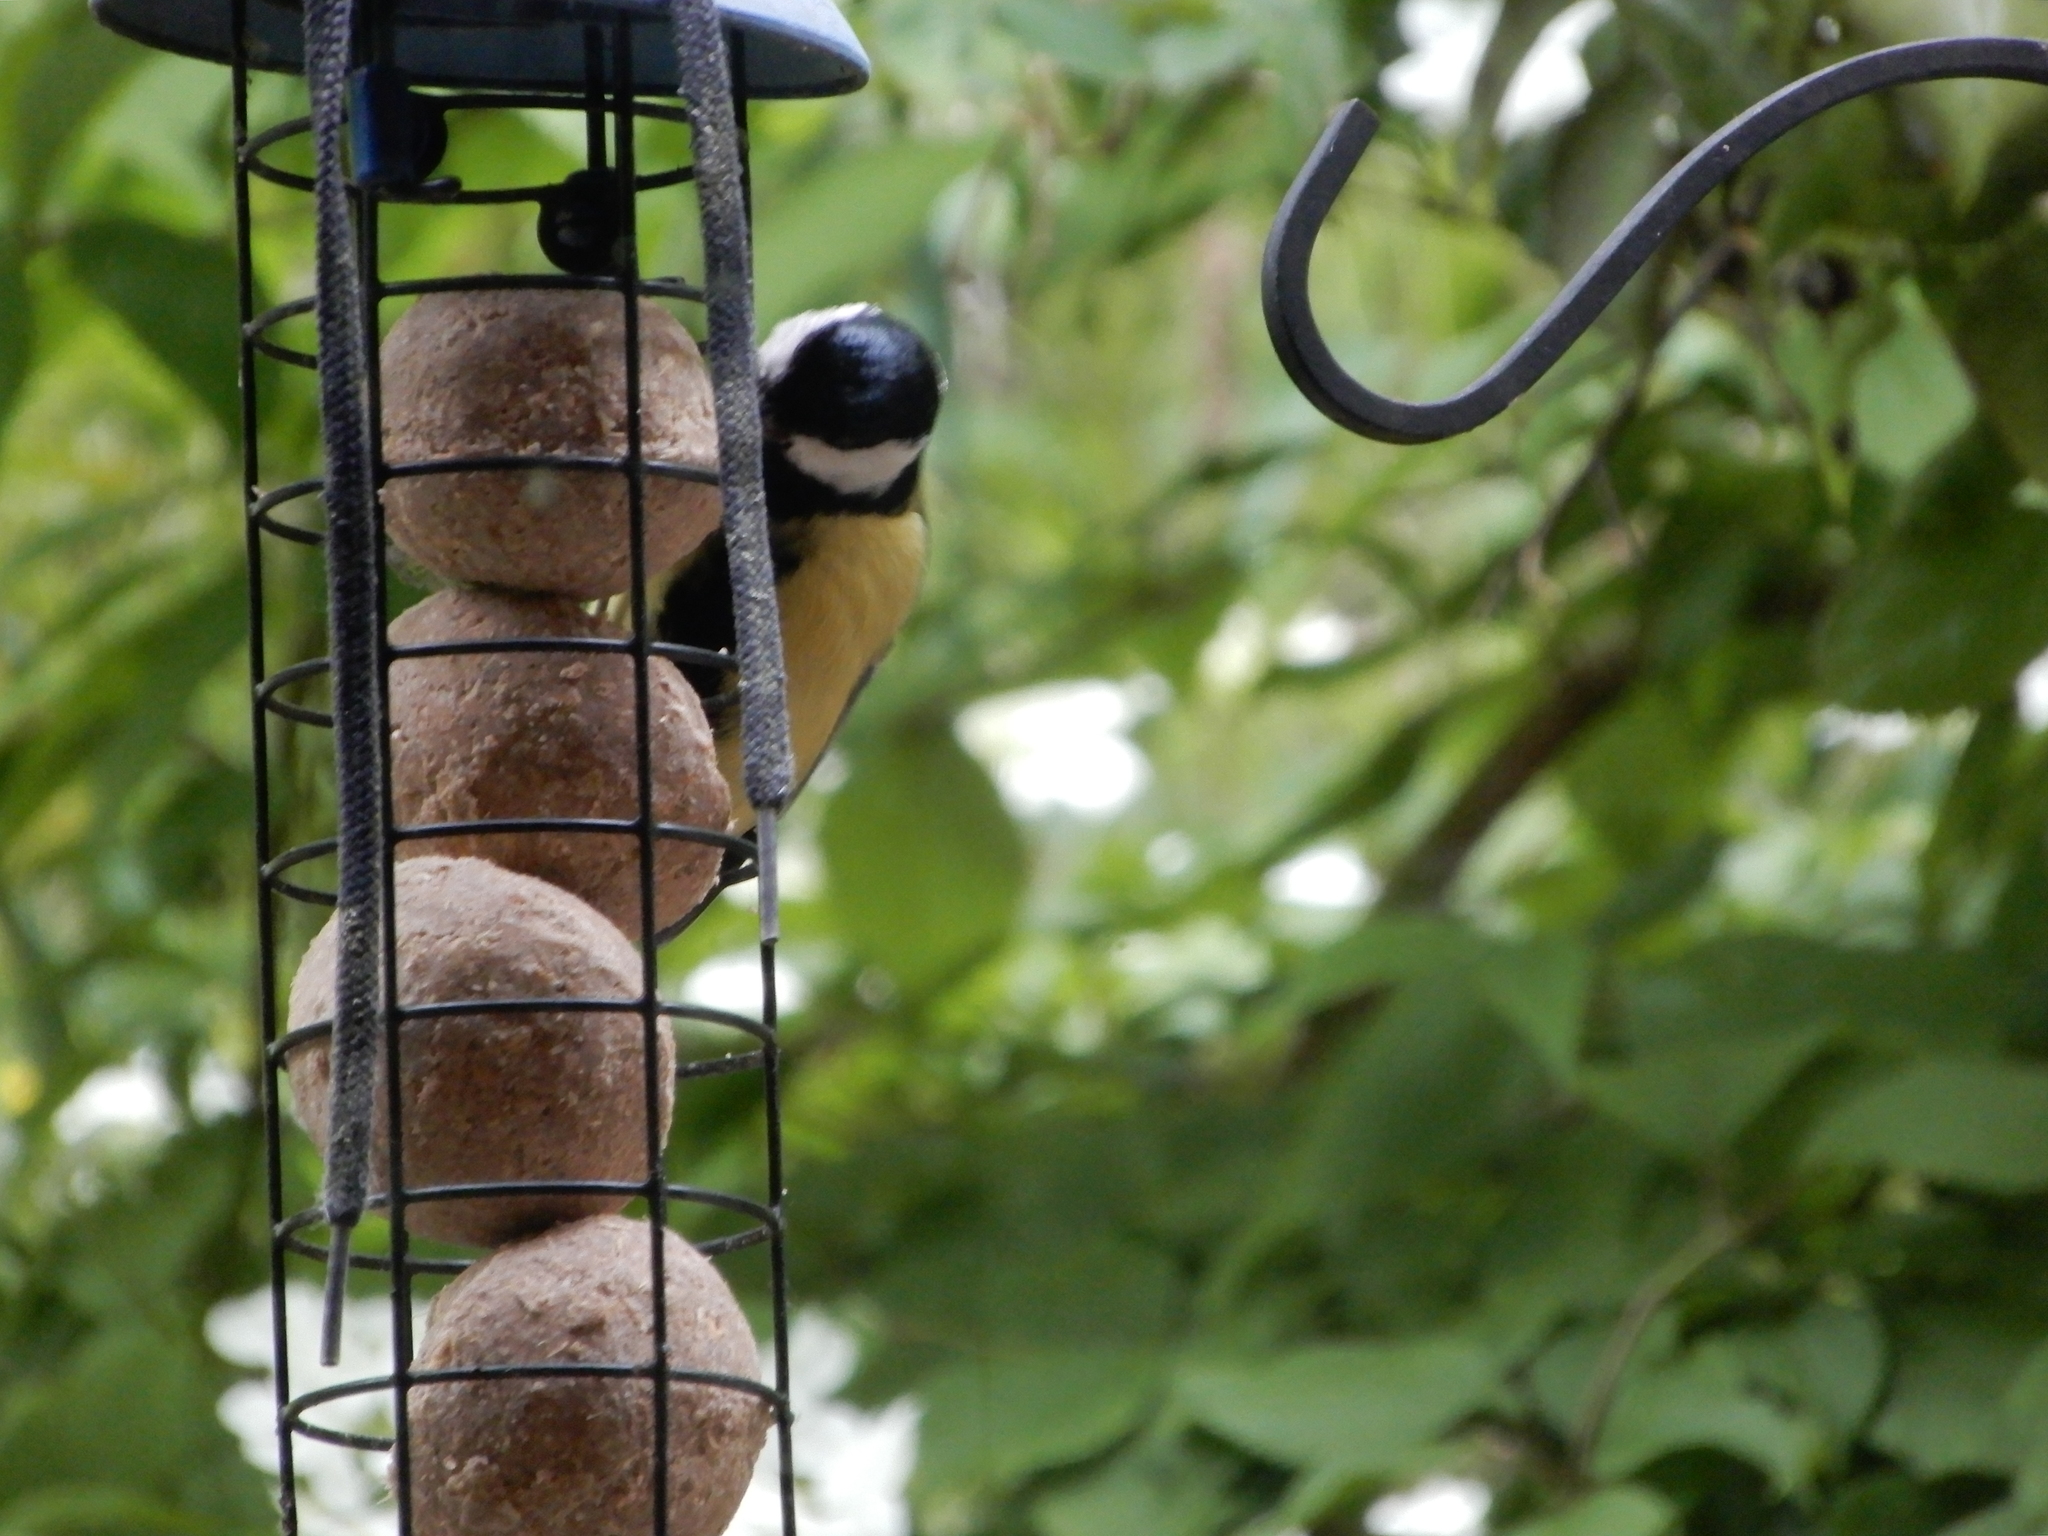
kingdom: Animalia
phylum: Chordata
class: Aves
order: Passeriformes
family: Paridae
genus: Parus
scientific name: Parus major
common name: Great tit
